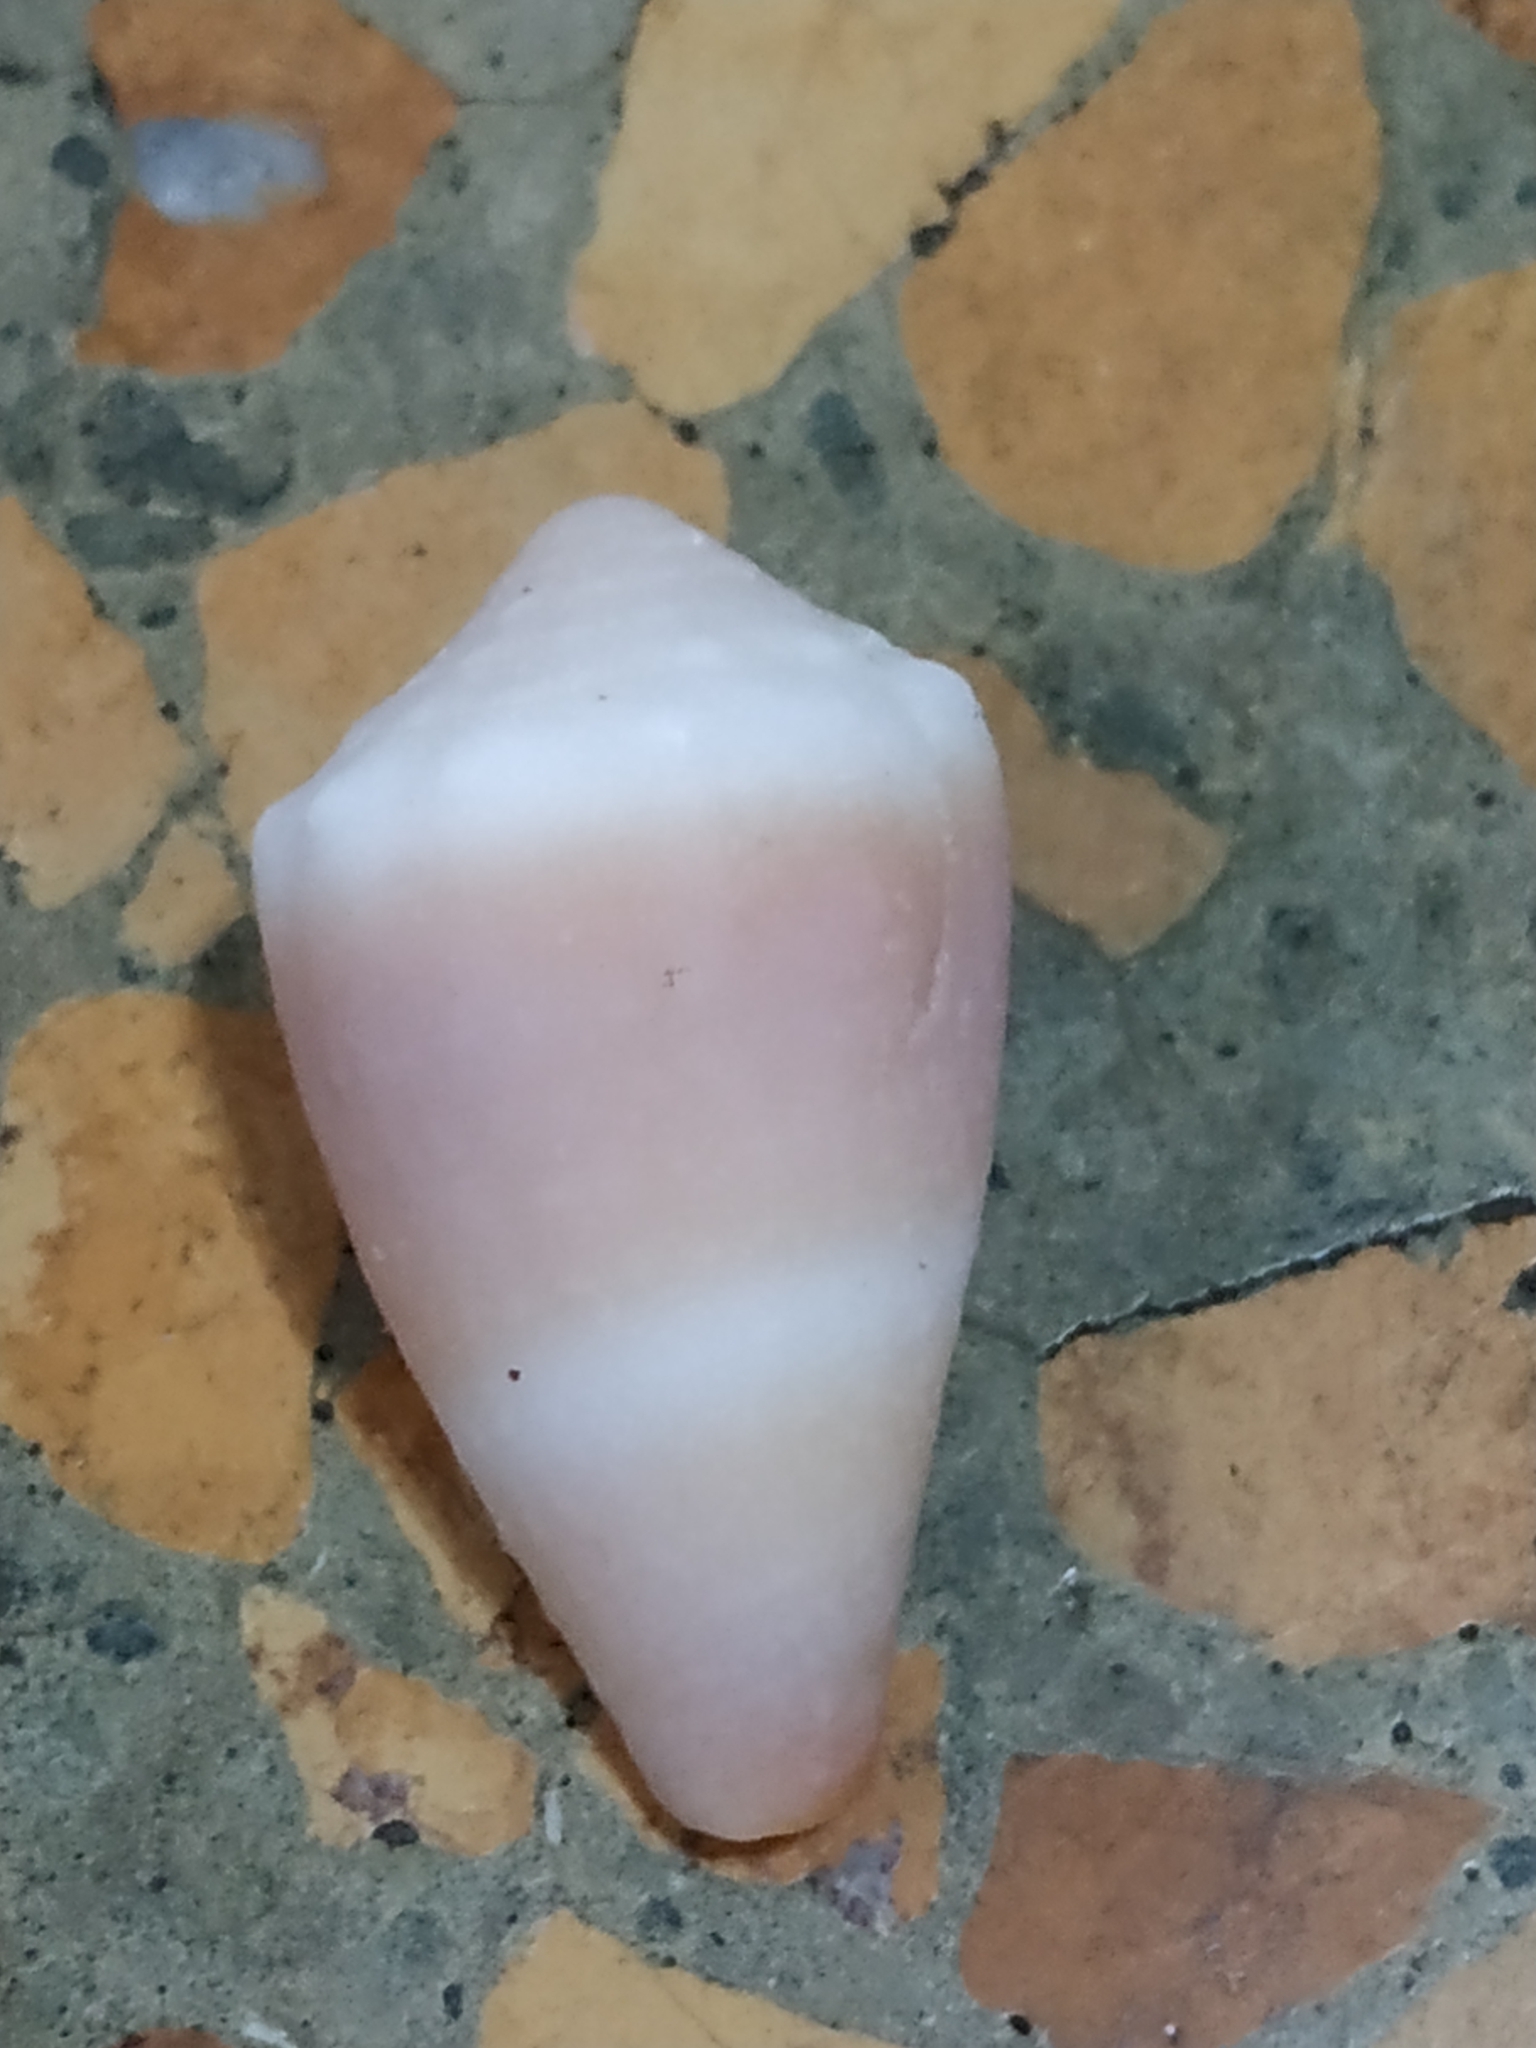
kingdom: Animalia
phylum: Mollusca
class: Gastropoda
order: Neogastropoda
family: Conidae
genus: Conus
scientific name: Conus lividus
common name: Livid cone
